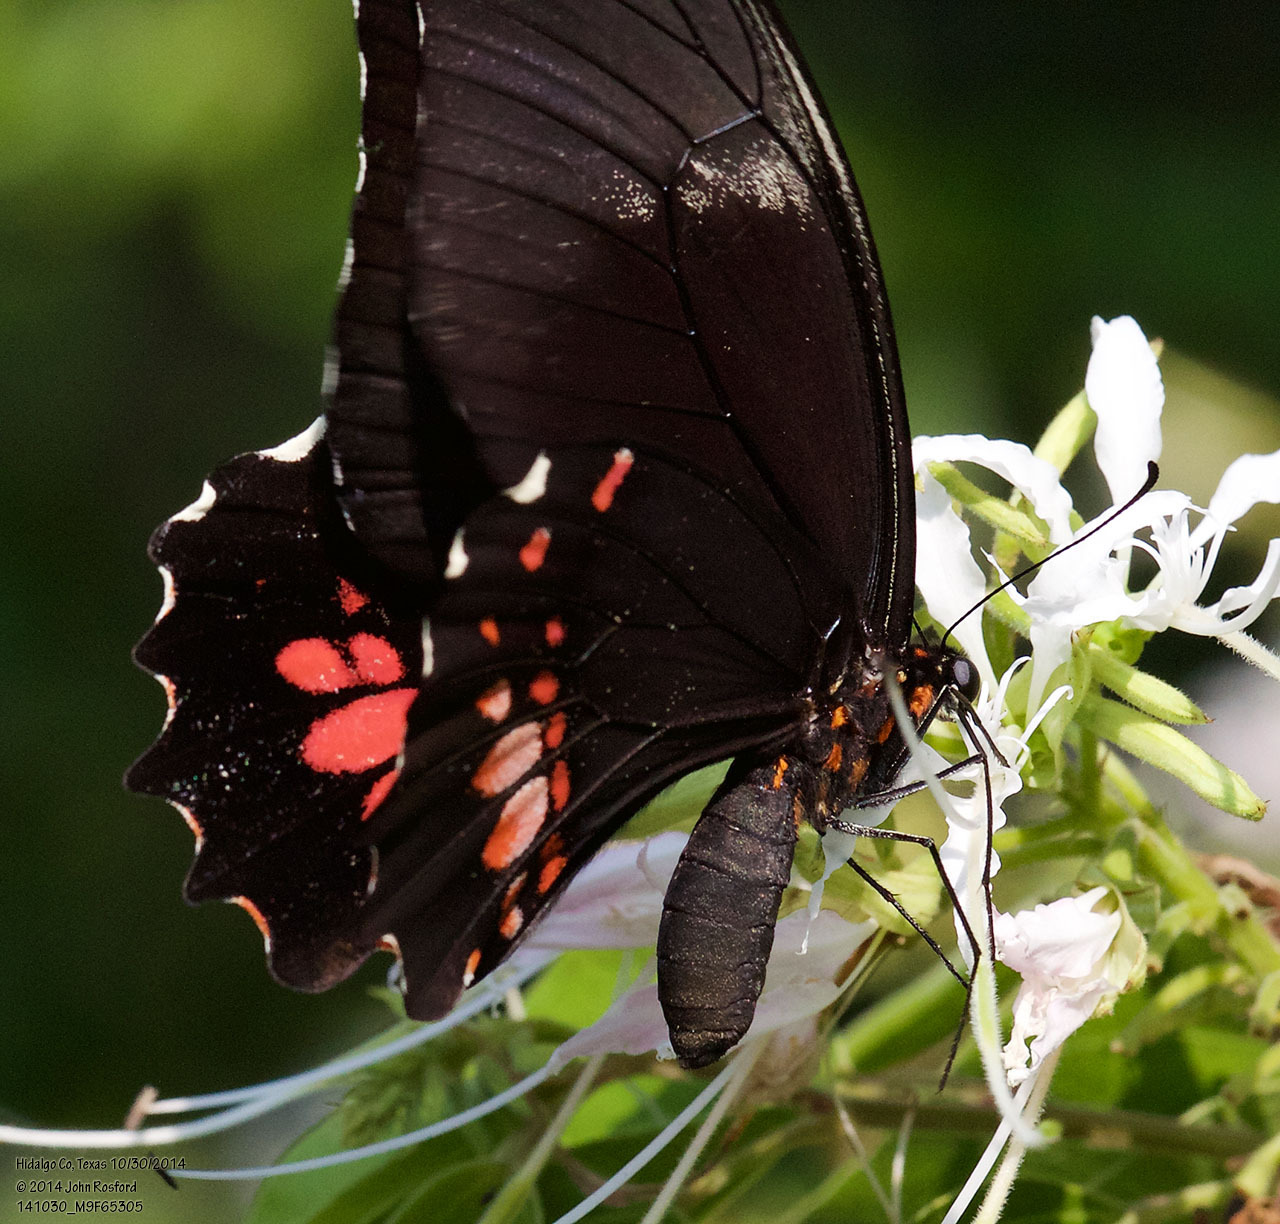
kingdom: Animalia
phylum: Arthropoda
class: Insecta
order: Lepidoptera
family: Papilionidae
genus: Papilio
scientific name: Papilio anchisiades
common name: Idaes swallowtail
